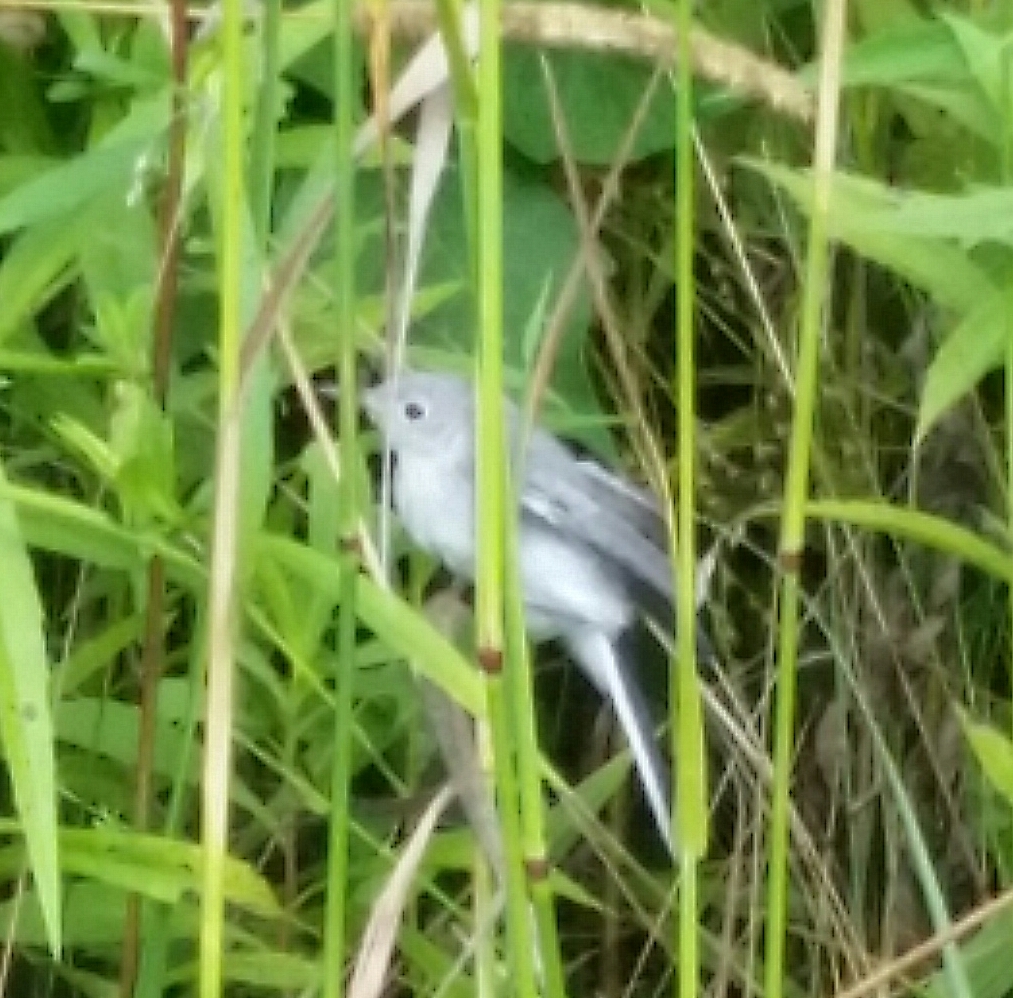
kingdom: Animalia
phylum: Chordata
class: Aves
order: Passeriformes
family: Polioptilidae
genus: Polioptila
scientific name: Polioptila caerulea
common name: Blue-gray gnatcatcher
